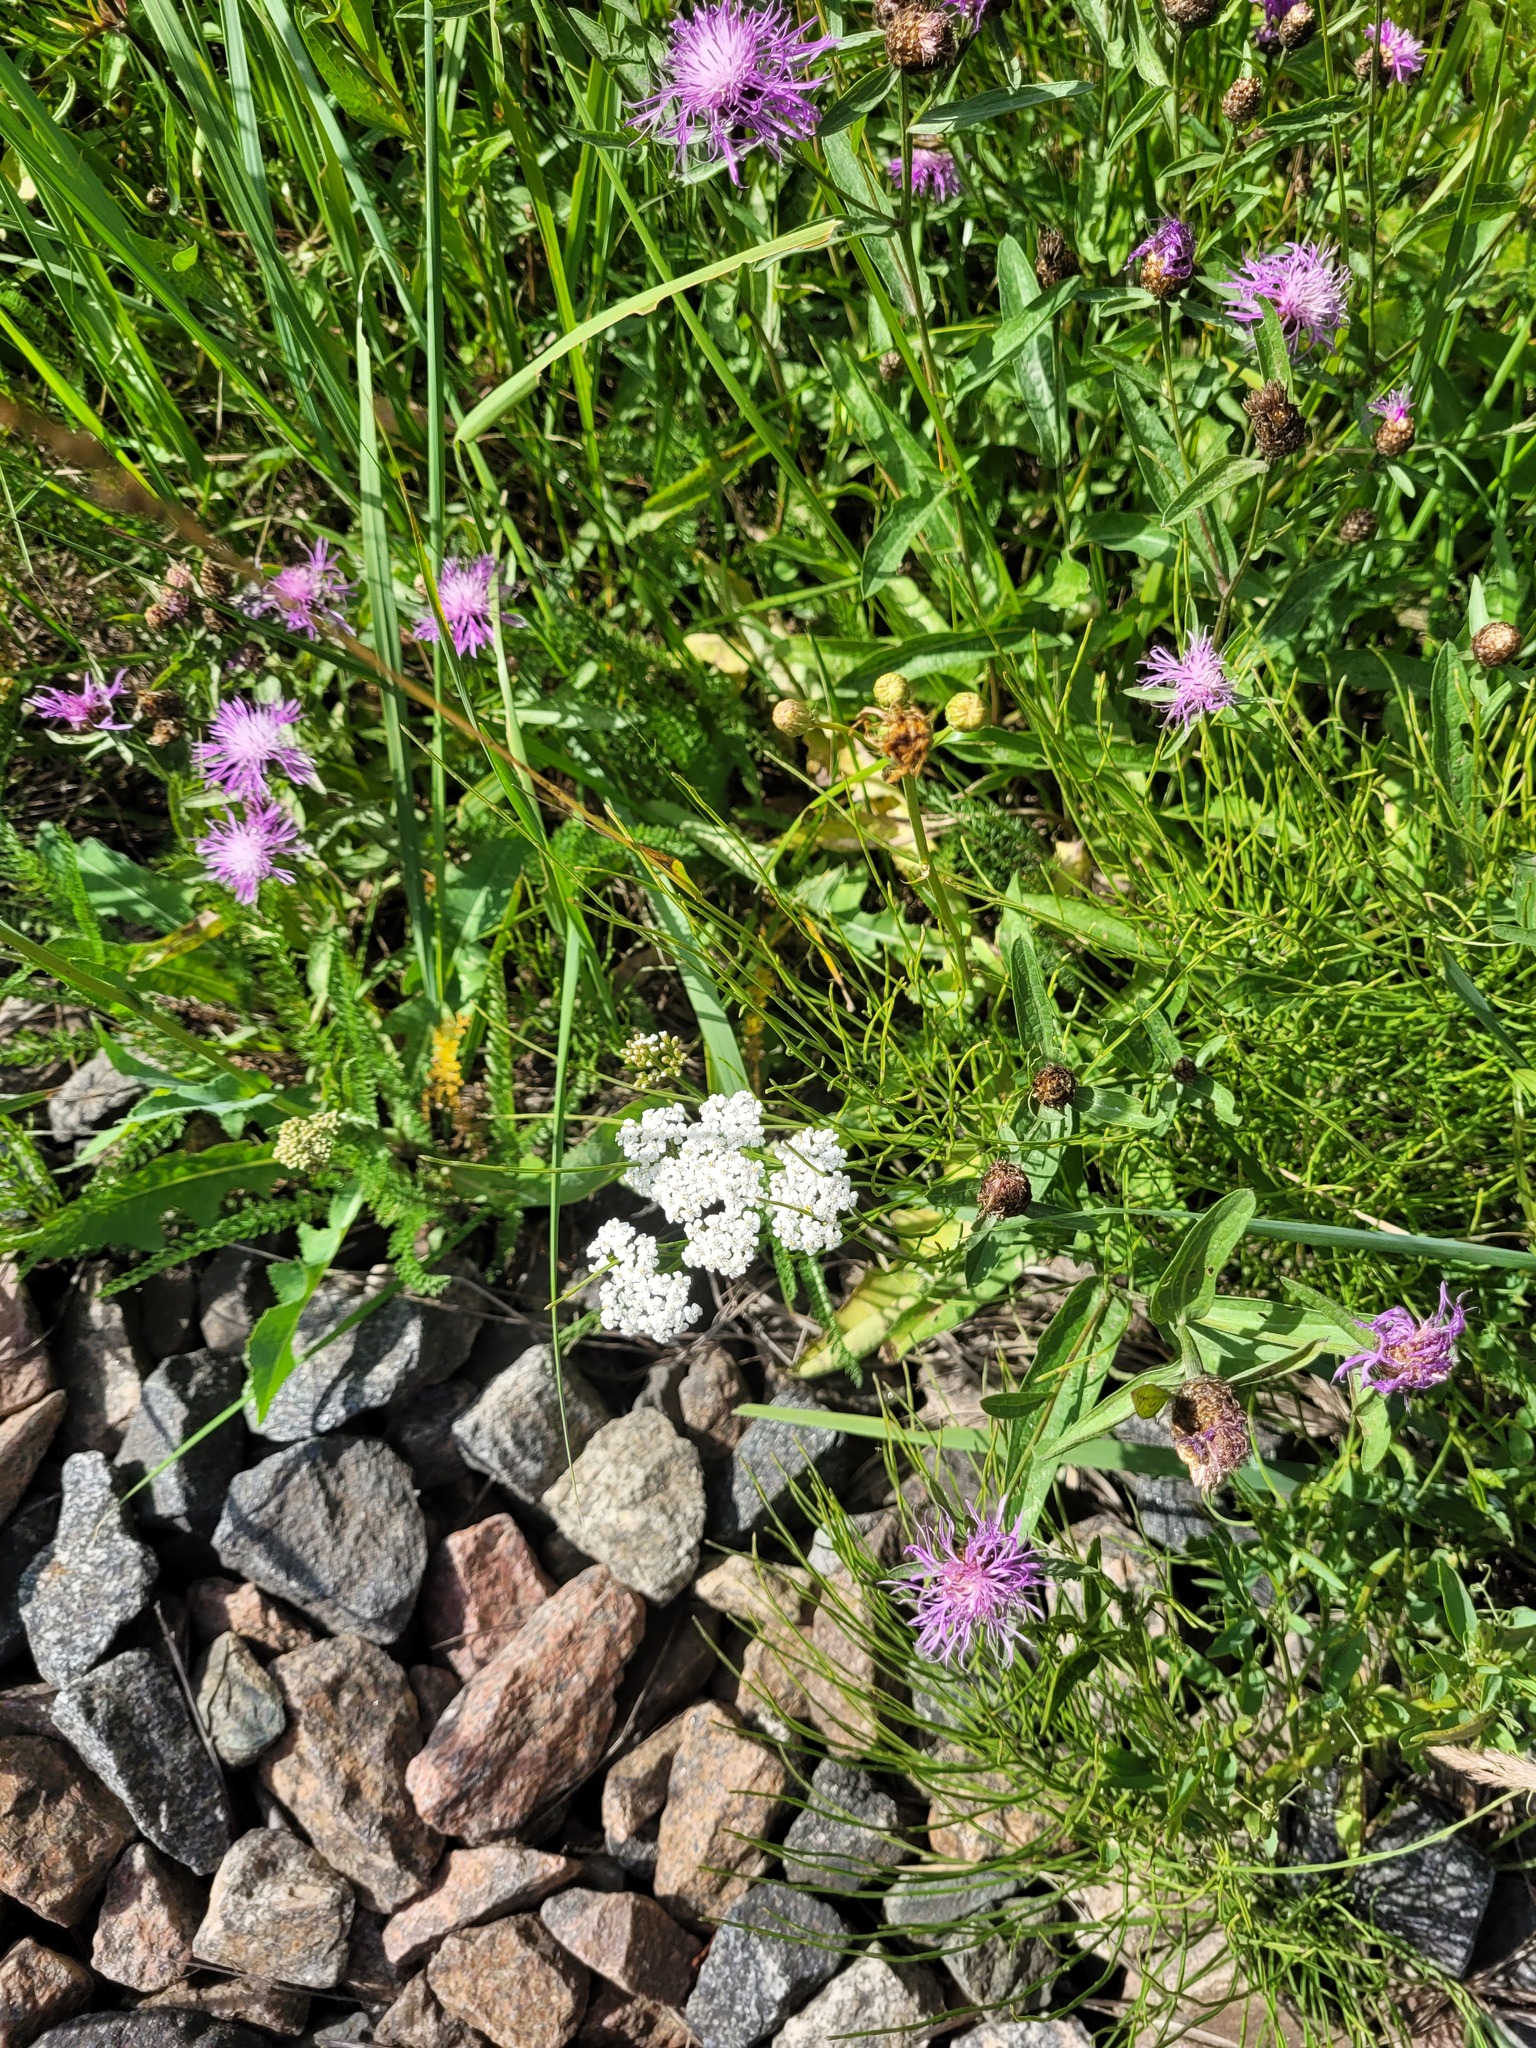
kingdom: Plantae
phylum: Tracheophyta
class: Magnoliopsida
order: Asterales
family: Asteraceae
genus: Achillea
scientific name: Achillea millefolium
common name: Yarrow
